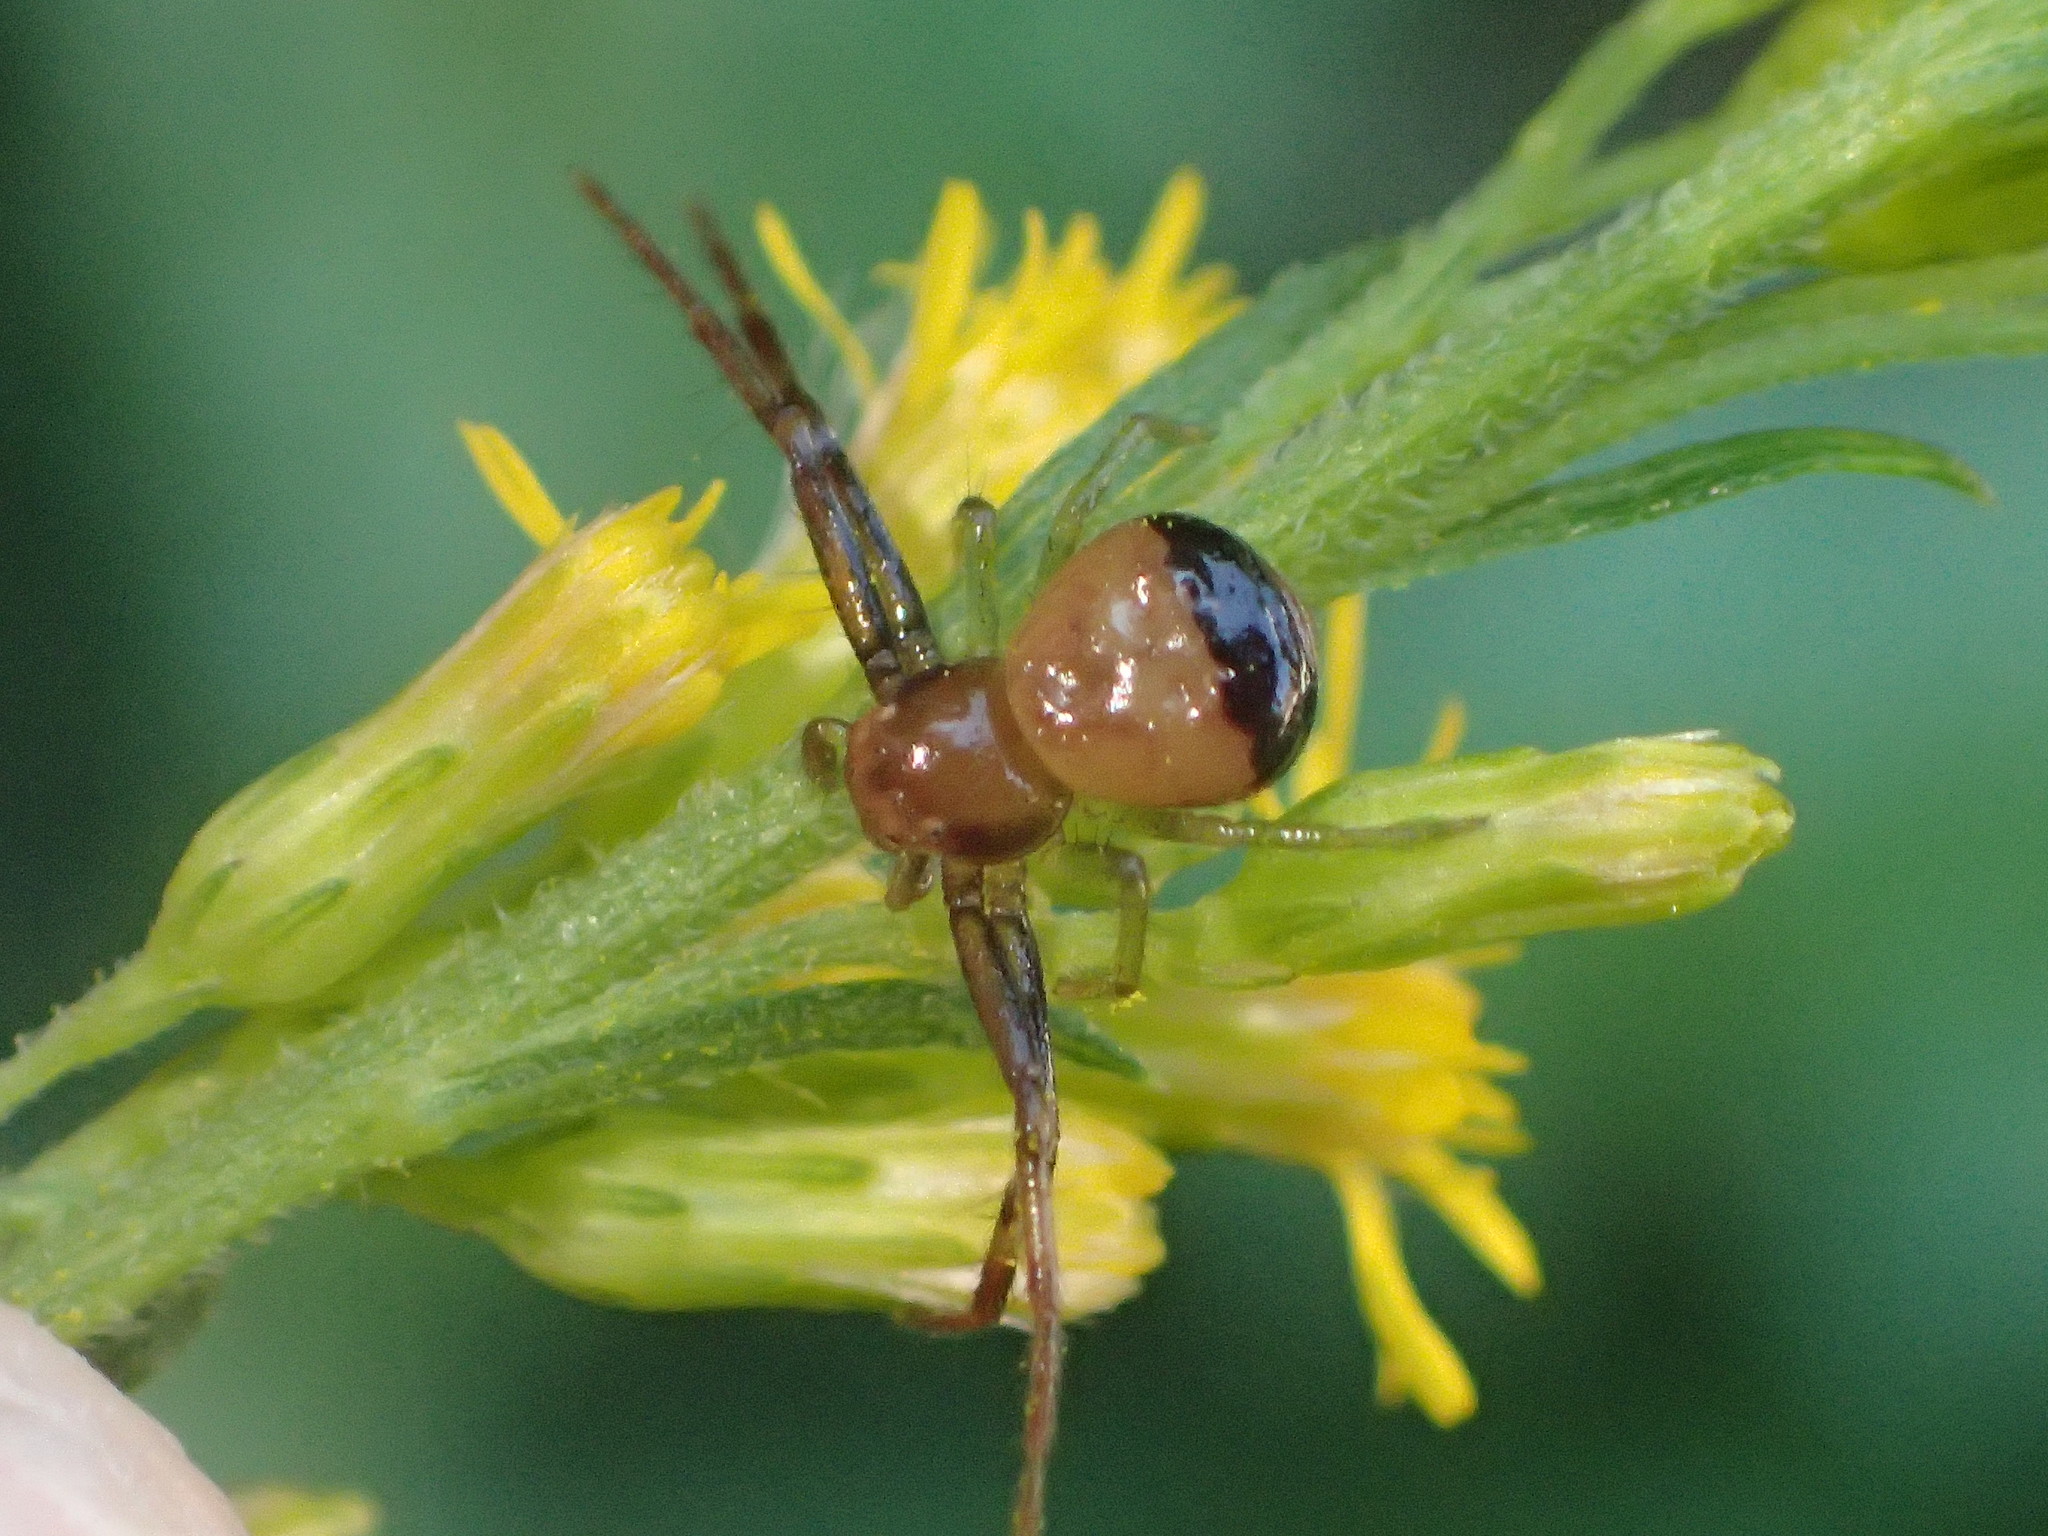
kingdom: Animalia
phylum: Arthropoda
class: Arachnida
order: Araneae
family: Thomisidae
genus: Synema
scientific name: Synema parvulum
